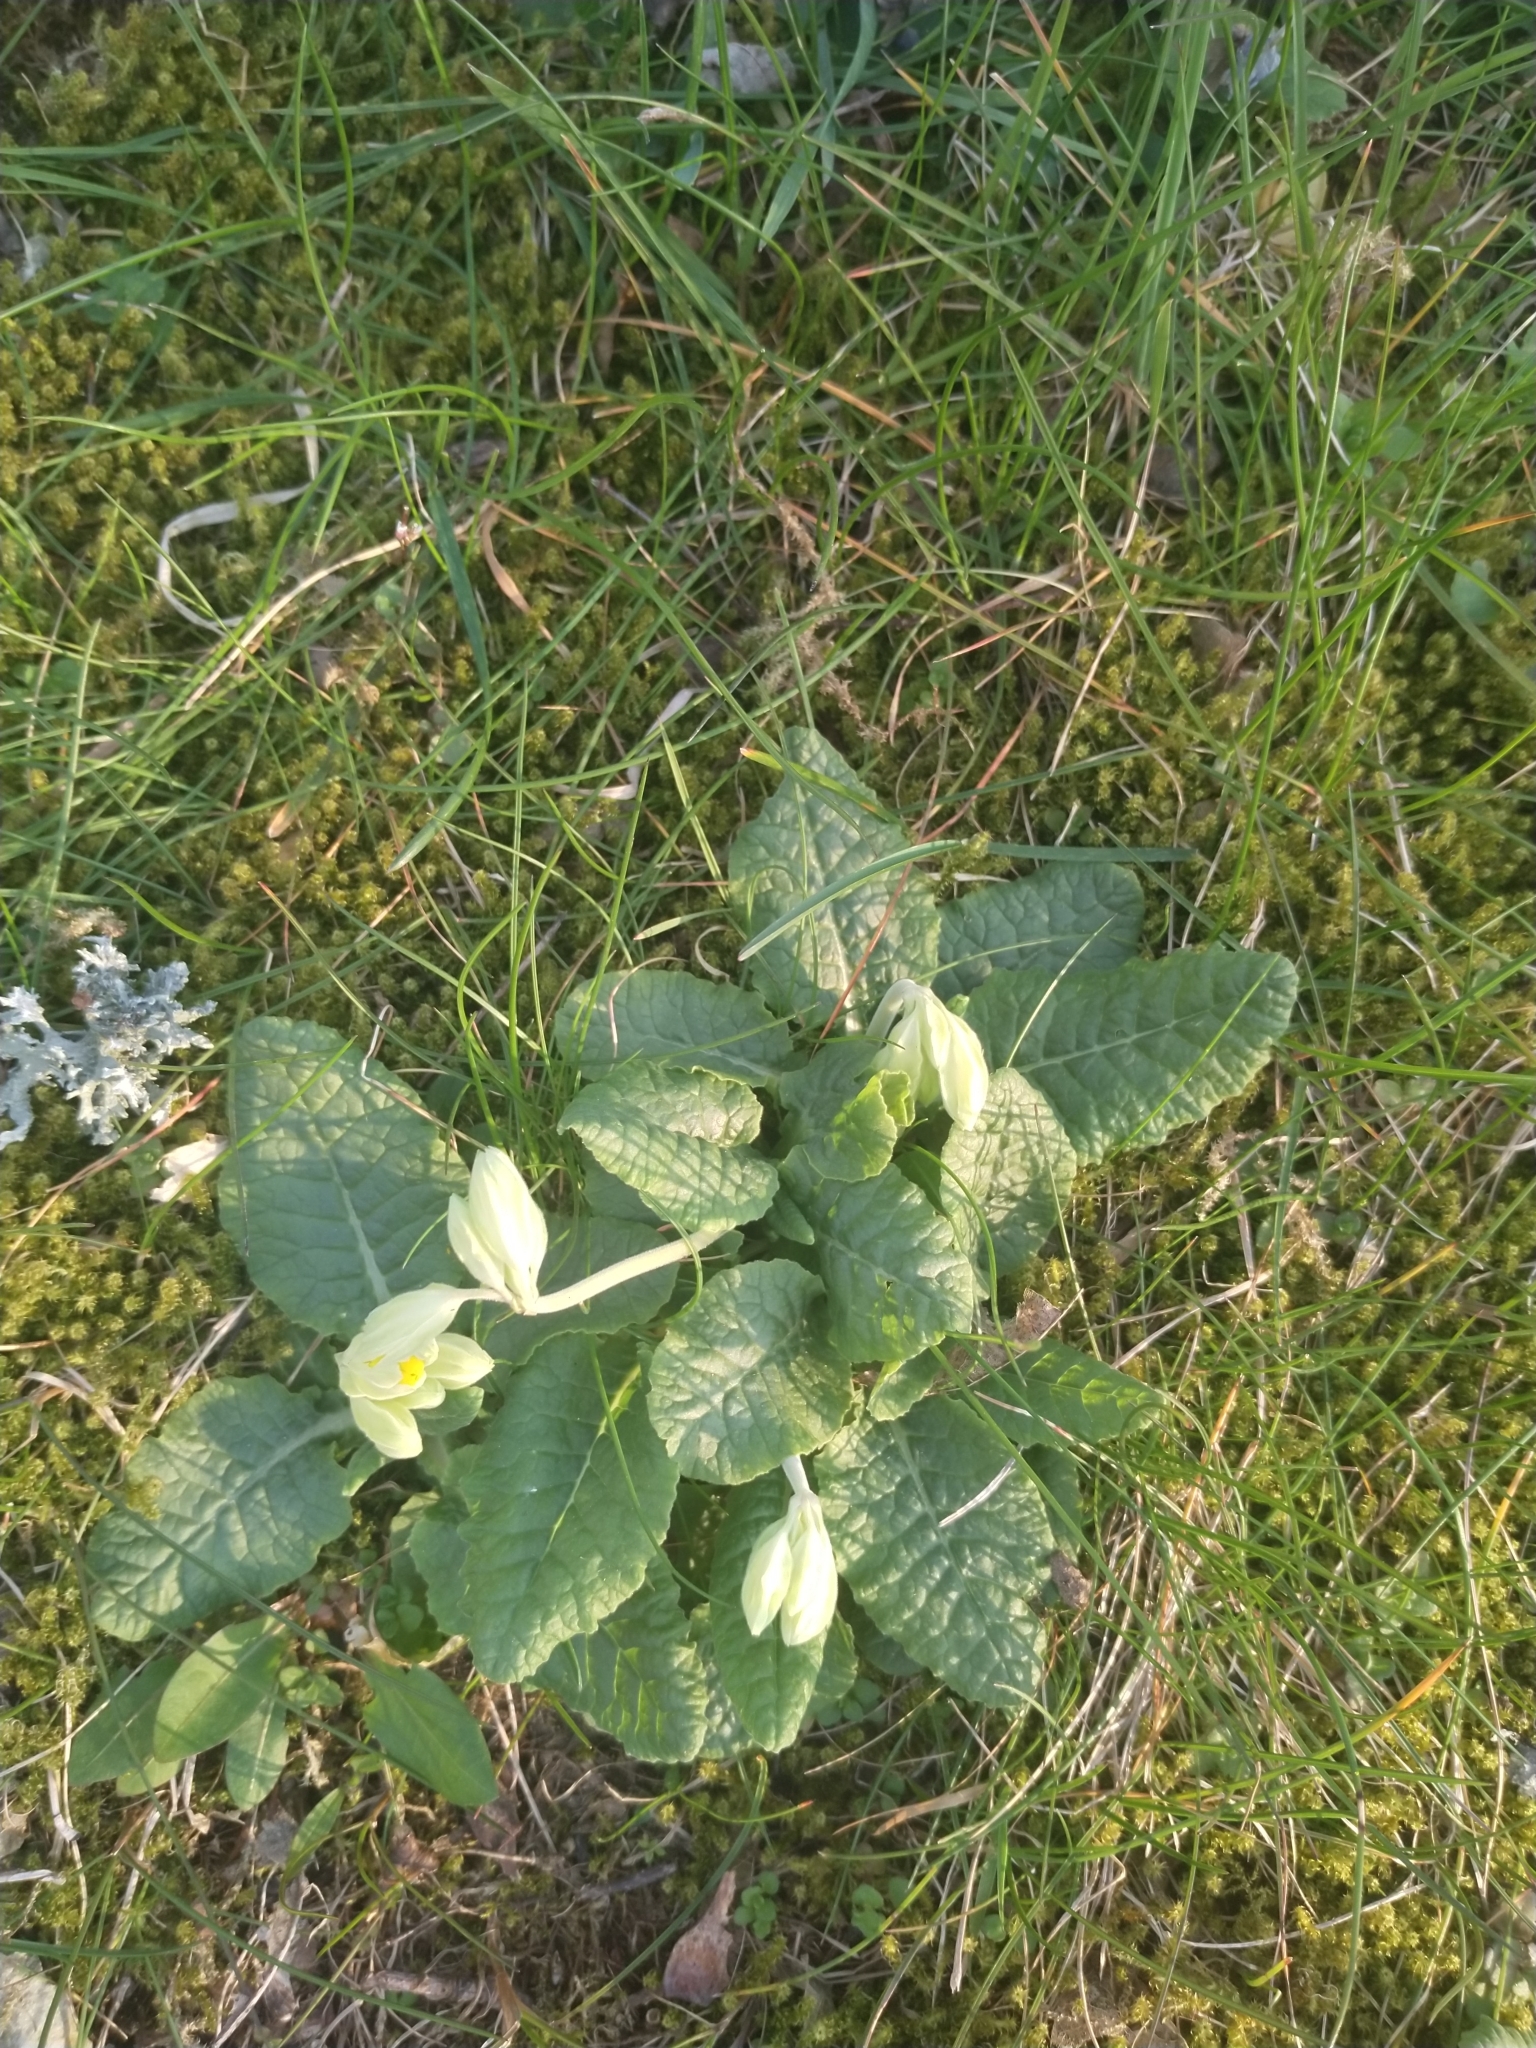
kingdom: Plantae
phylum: Tracheophyta
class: Magnoliopsida
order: Ericales
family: Primulaceae
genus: Primula
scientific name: Primula veris
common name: Cowslip
